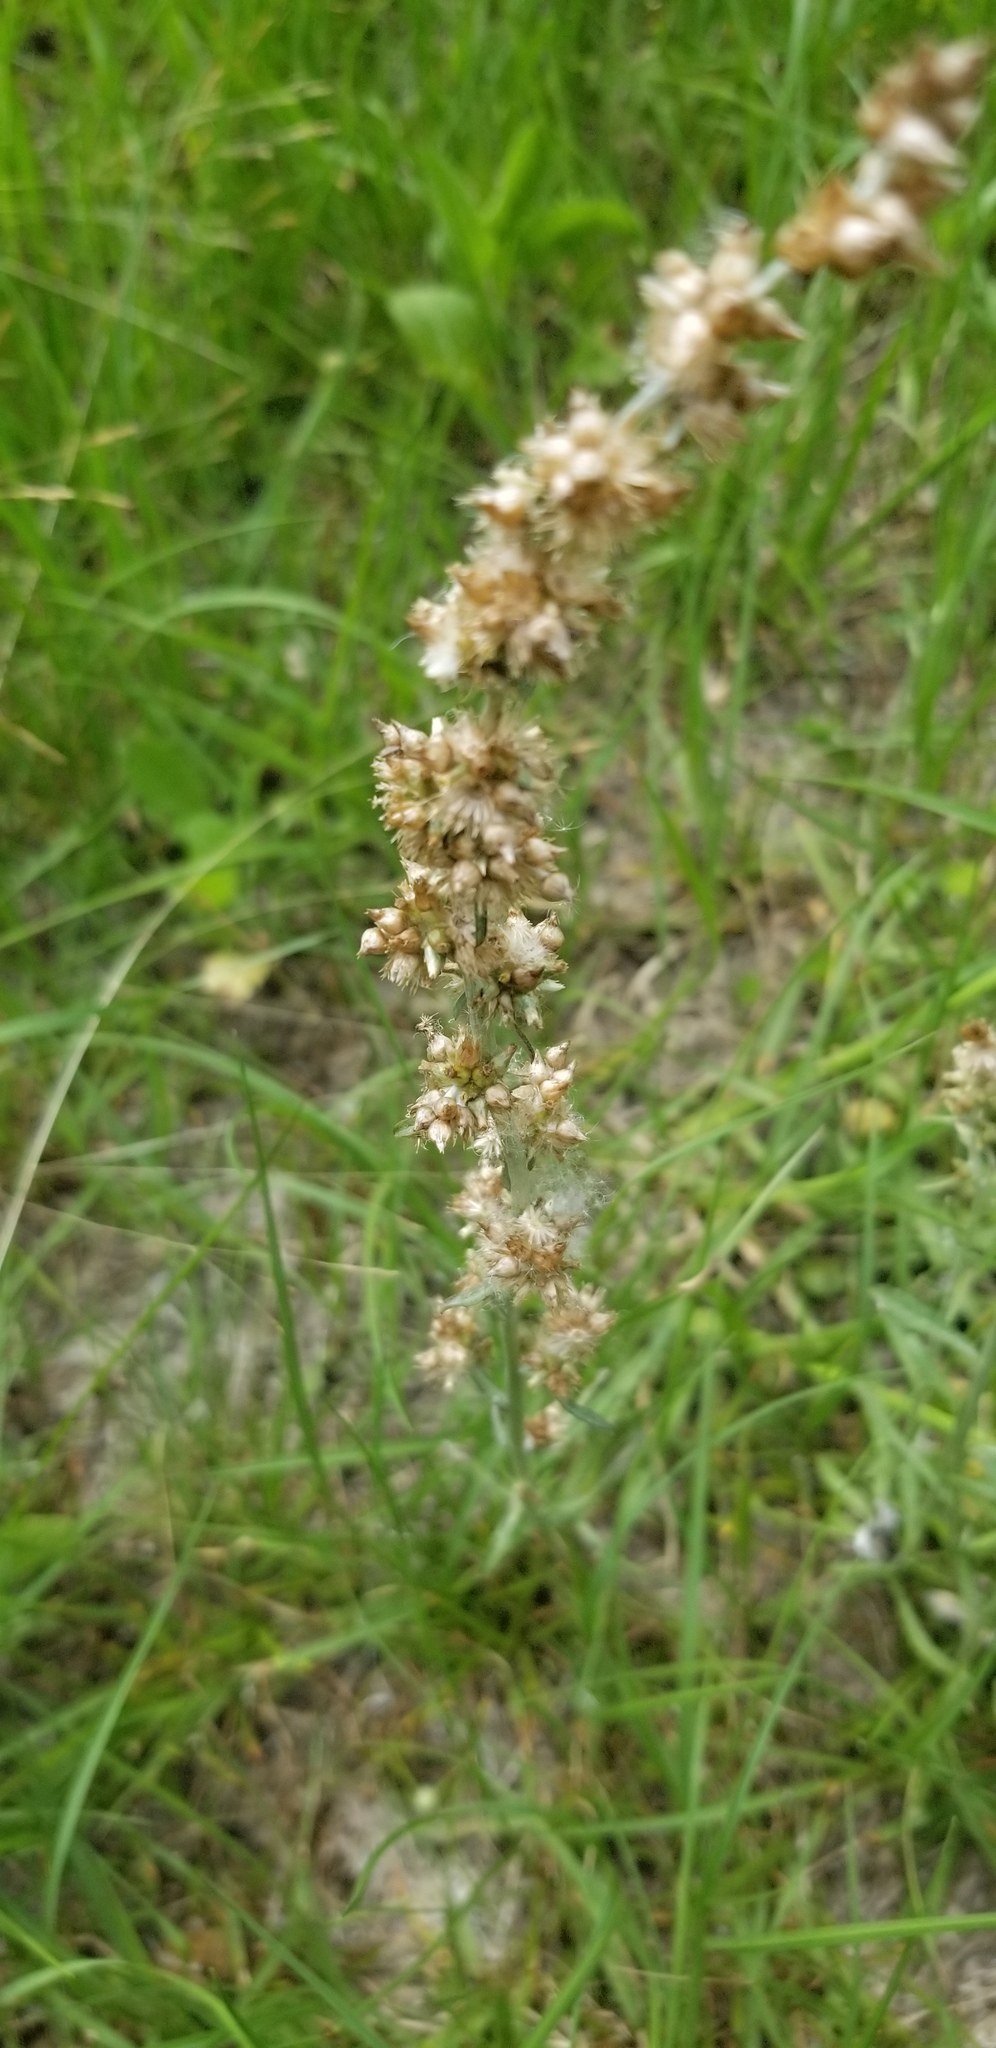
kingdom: Plantae
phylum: Tracheophyta
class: Magnoliopsida
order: Asterales
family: Asteraceae
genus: Gamochaeta
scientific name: Gamochaeta argyrinea
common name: Silvery cudweed
